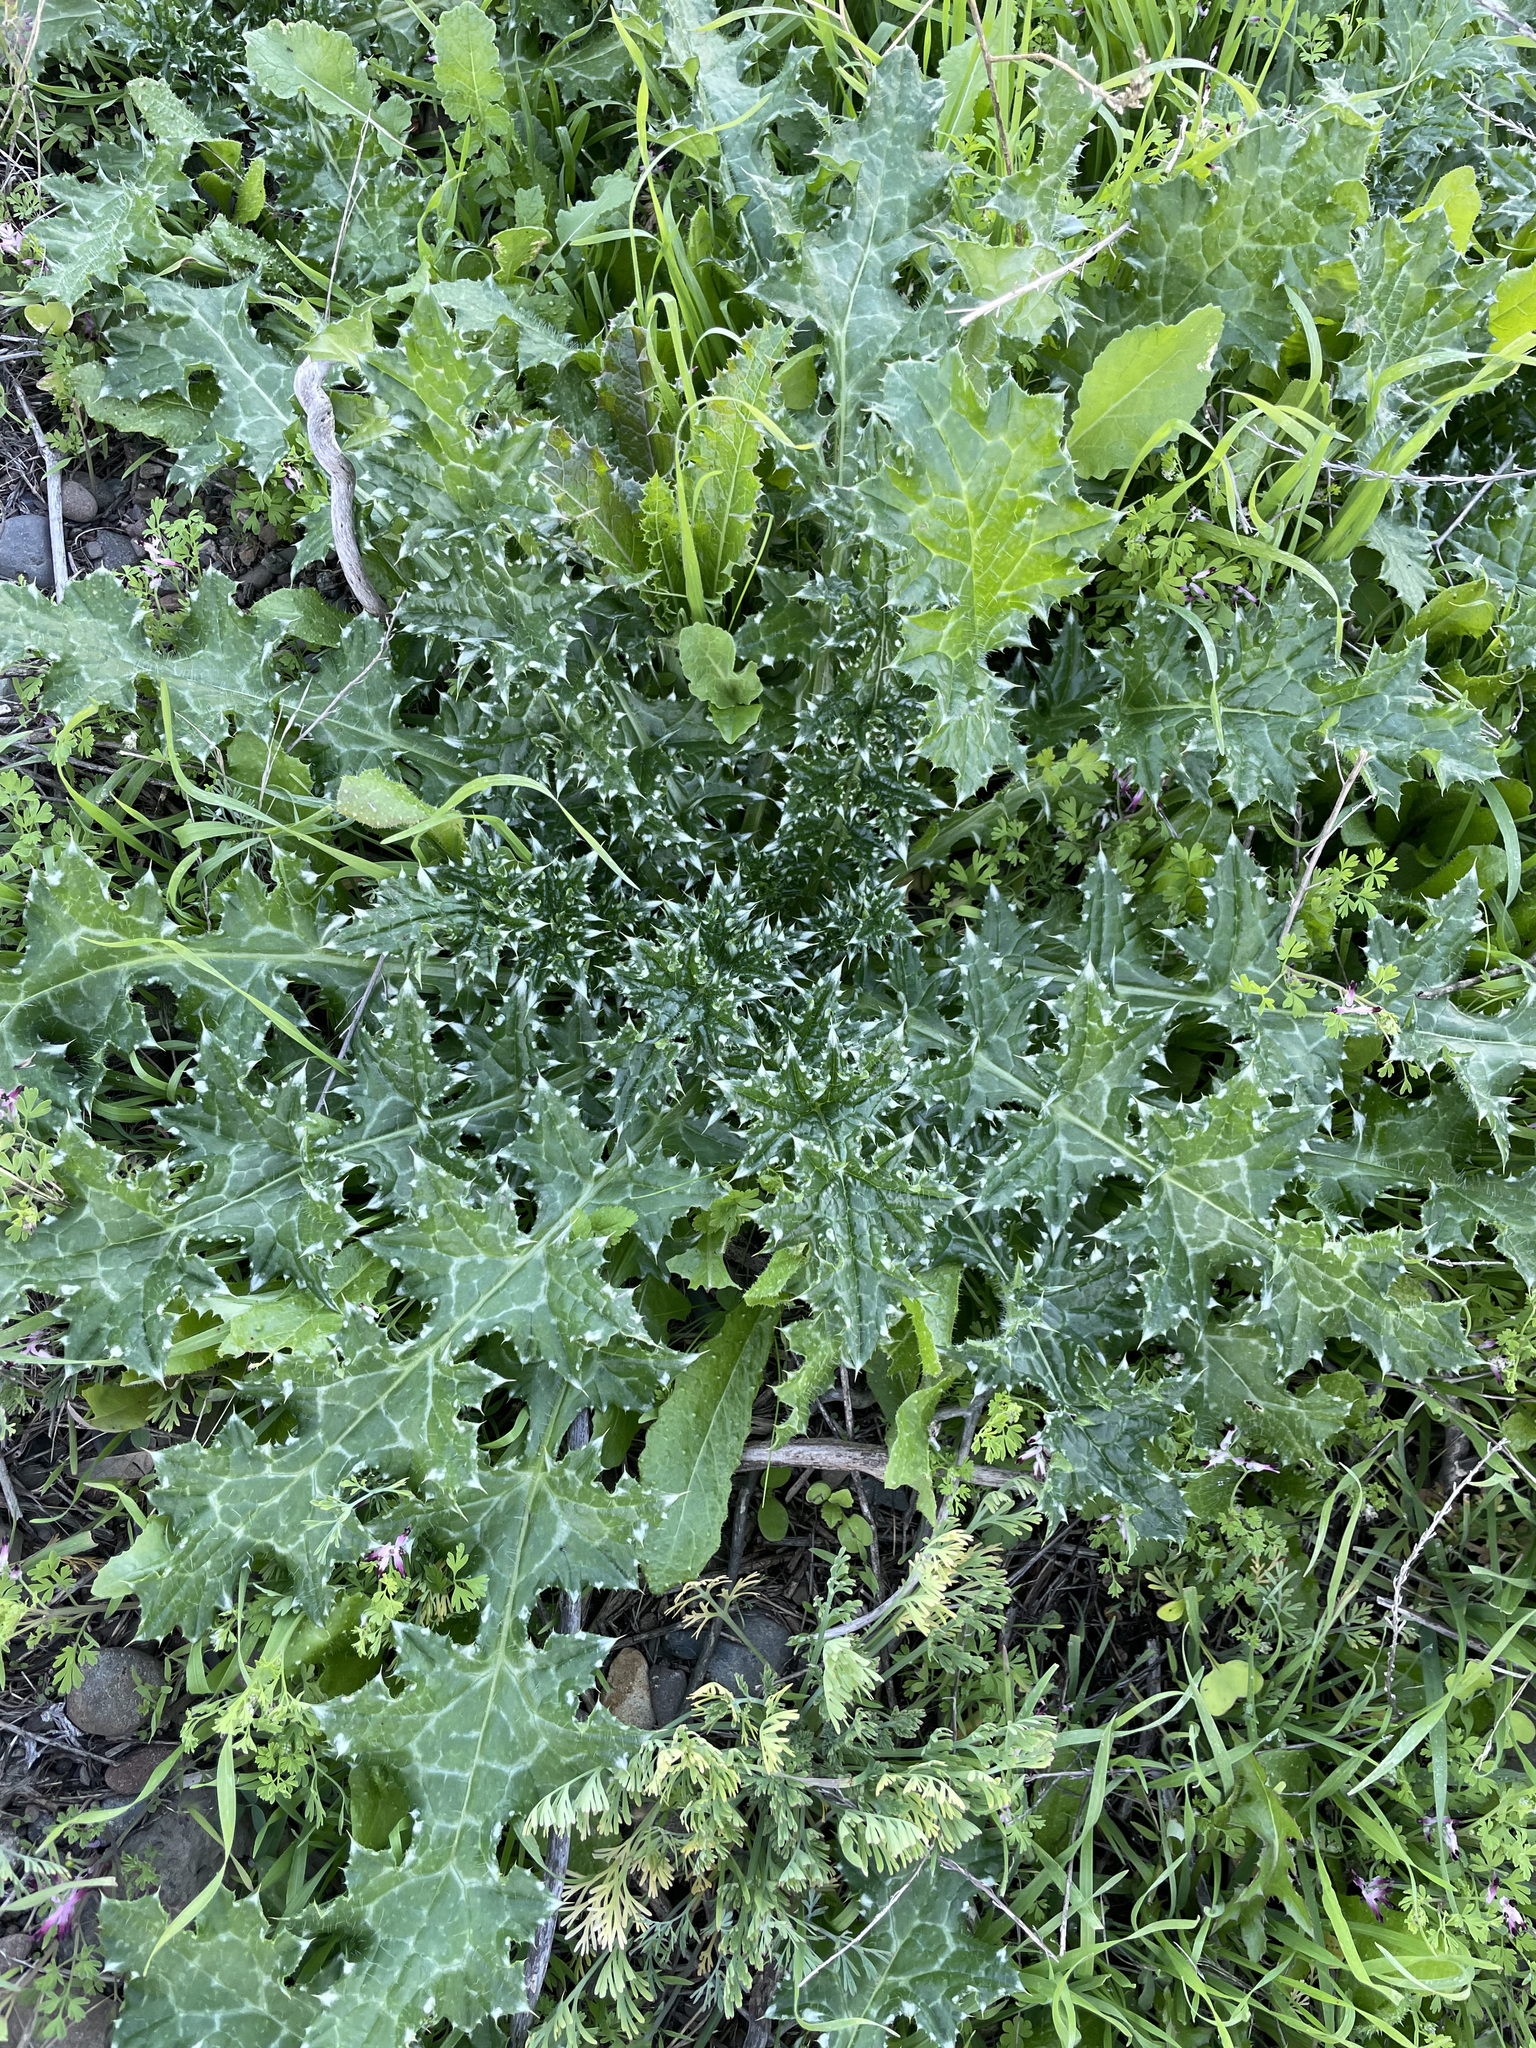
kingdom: Plantae
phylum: Tracheophyta
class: Magnoliopsida
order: Asterales
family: Asteraceae
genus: Carduus
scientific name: Carduus pycnocephalus
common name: Plymouth thistle
